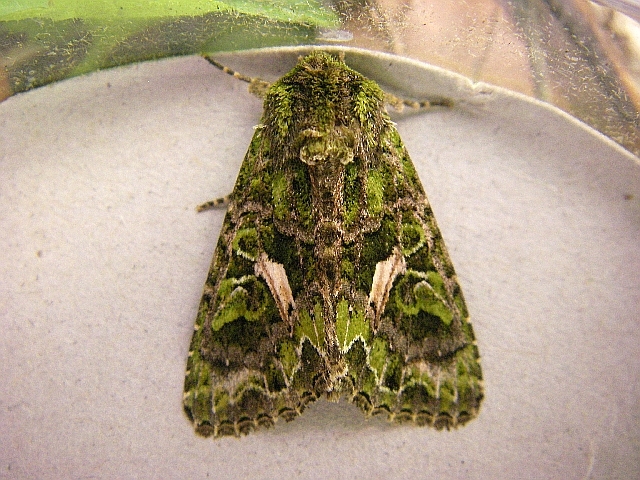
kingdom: Animalia
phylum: Arthropoda
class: Insecta
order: Lepidoptera
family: Noctuidae
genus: Trachea
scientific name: Trachea atriplicis
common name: Orache moth
